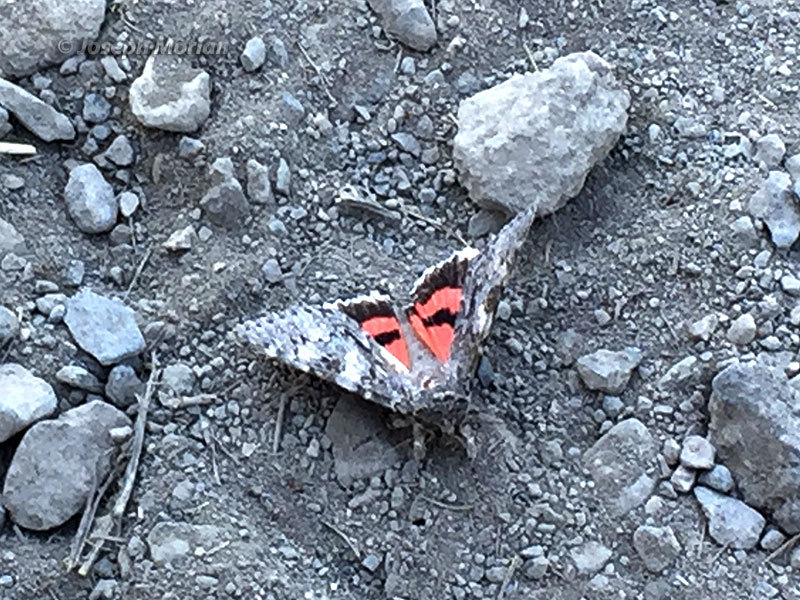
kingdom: Animalia
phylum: Arthropoda
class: Insecta
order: Lepidoptera
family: Erebidae
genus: Catocala
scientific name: Catocala californica
